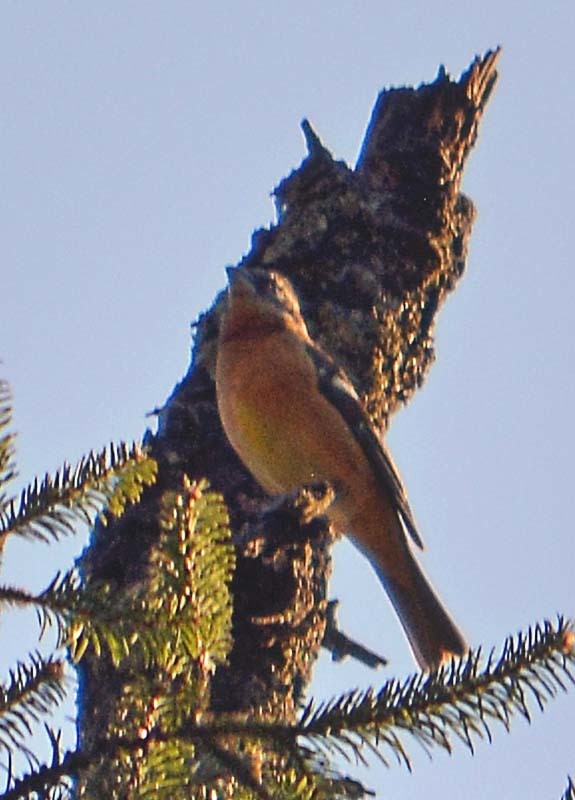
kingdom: Animalia
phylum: Chordata
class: Aves
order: Passeriformes
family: Cardinalidae
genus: Pheucticus
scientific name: Pheucticus melanocephalus
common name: Black-headed grosbeak
